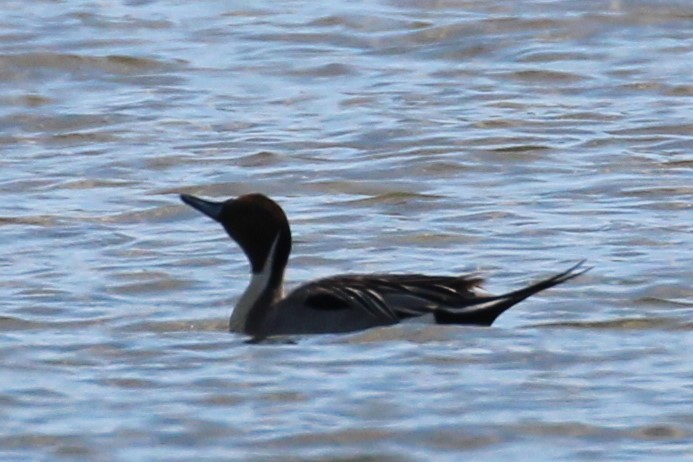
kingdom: Animalia
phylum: Chordata
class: Aves
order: Anseriformes
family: Anatidae
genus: Anas
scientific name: Anas acuta
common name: Northern pintail
